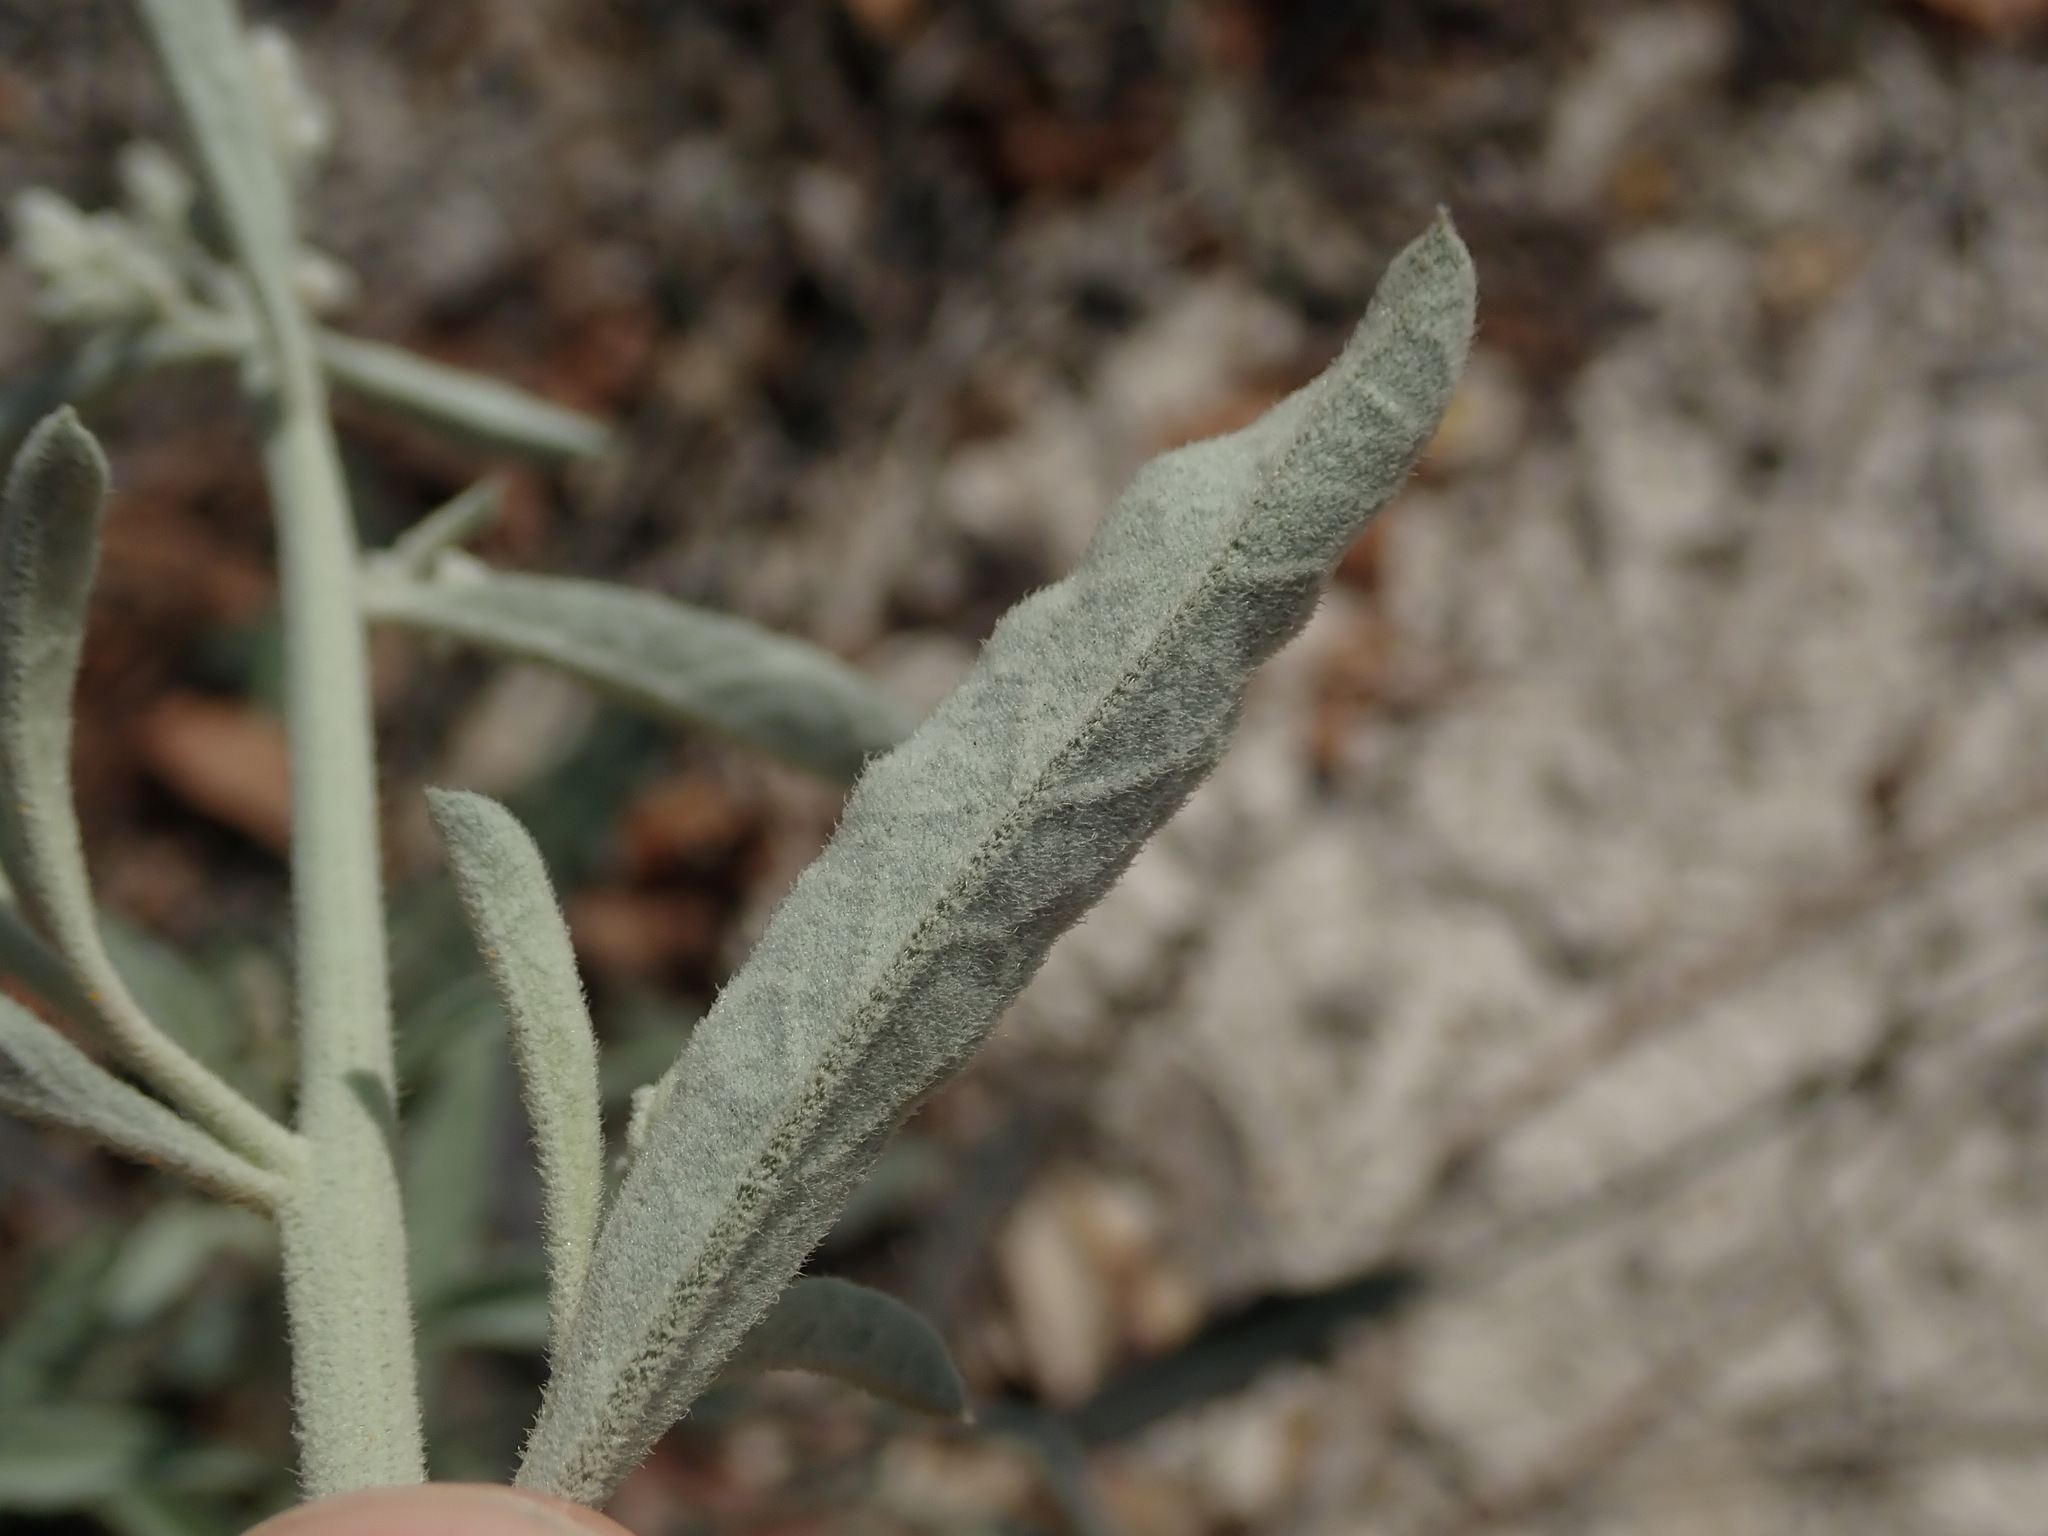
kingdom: Plantae
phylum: Tracheophyta
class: Magnoliopsida
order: Caryophyllales
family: Amaranthaceae
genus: Aerva
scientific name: Aerva javanica
